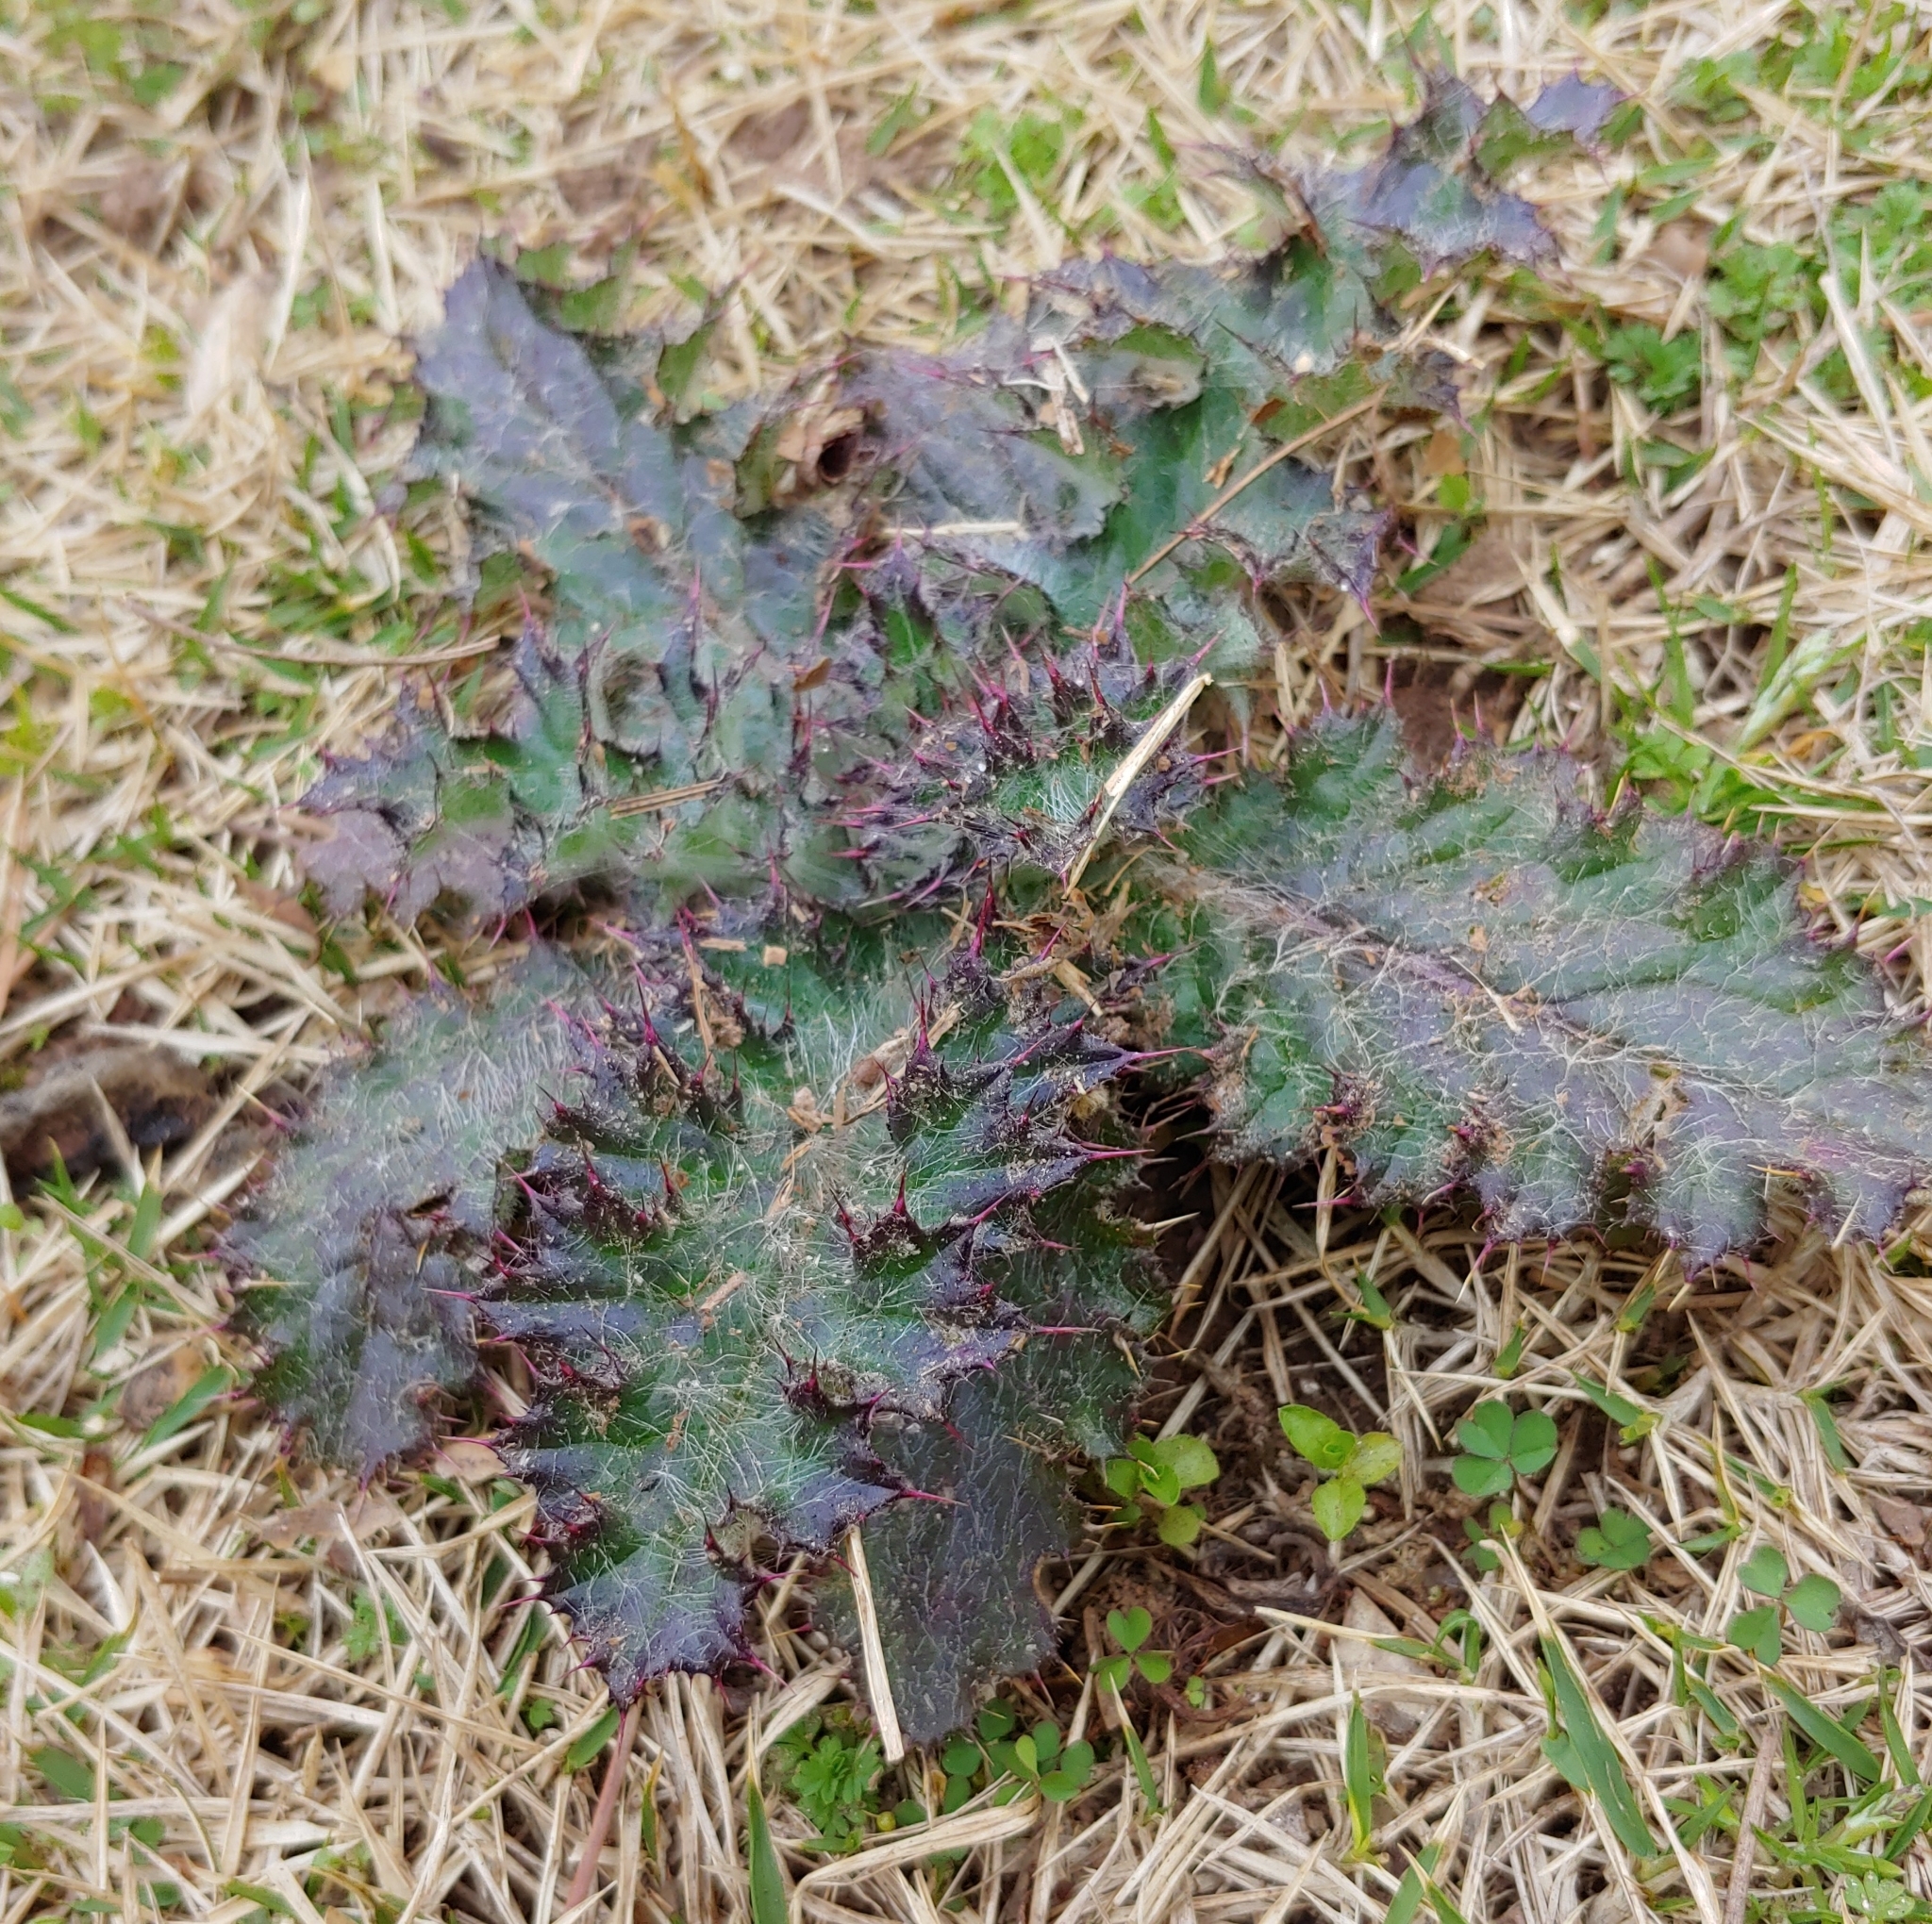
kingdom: Plantae
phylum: Tracheophyta
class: Magnoliopsida
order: Asterales
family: Asteraceae
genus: Cirsium
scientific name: Cirsium horridulum
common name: Bristly thistle
